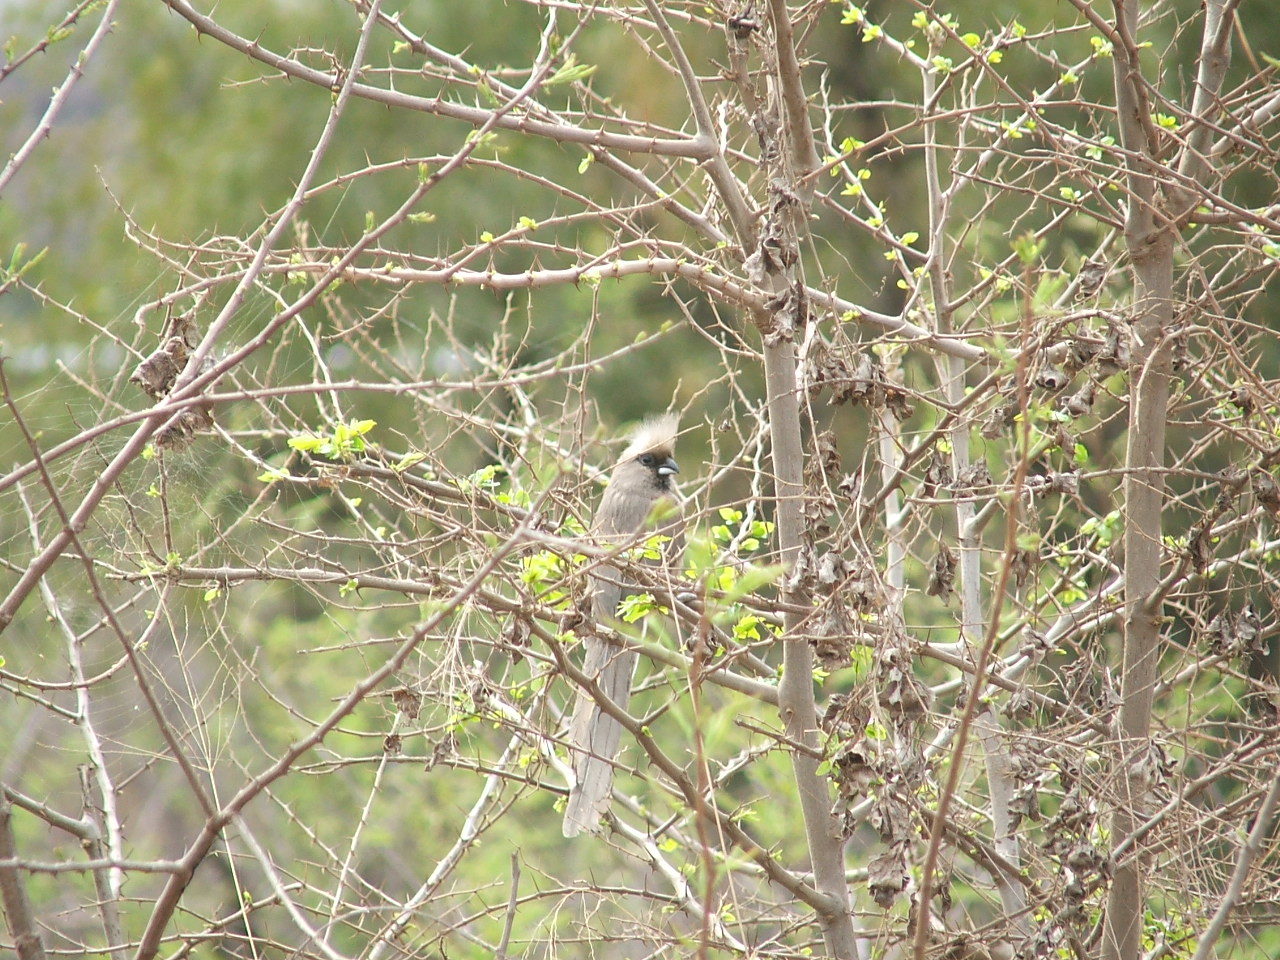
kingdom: Animalia
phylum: Chordata
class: Aves
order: Coliiformes
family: Coliidae
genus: Colius
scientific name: Colius striatus
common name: Speckled mousebird
